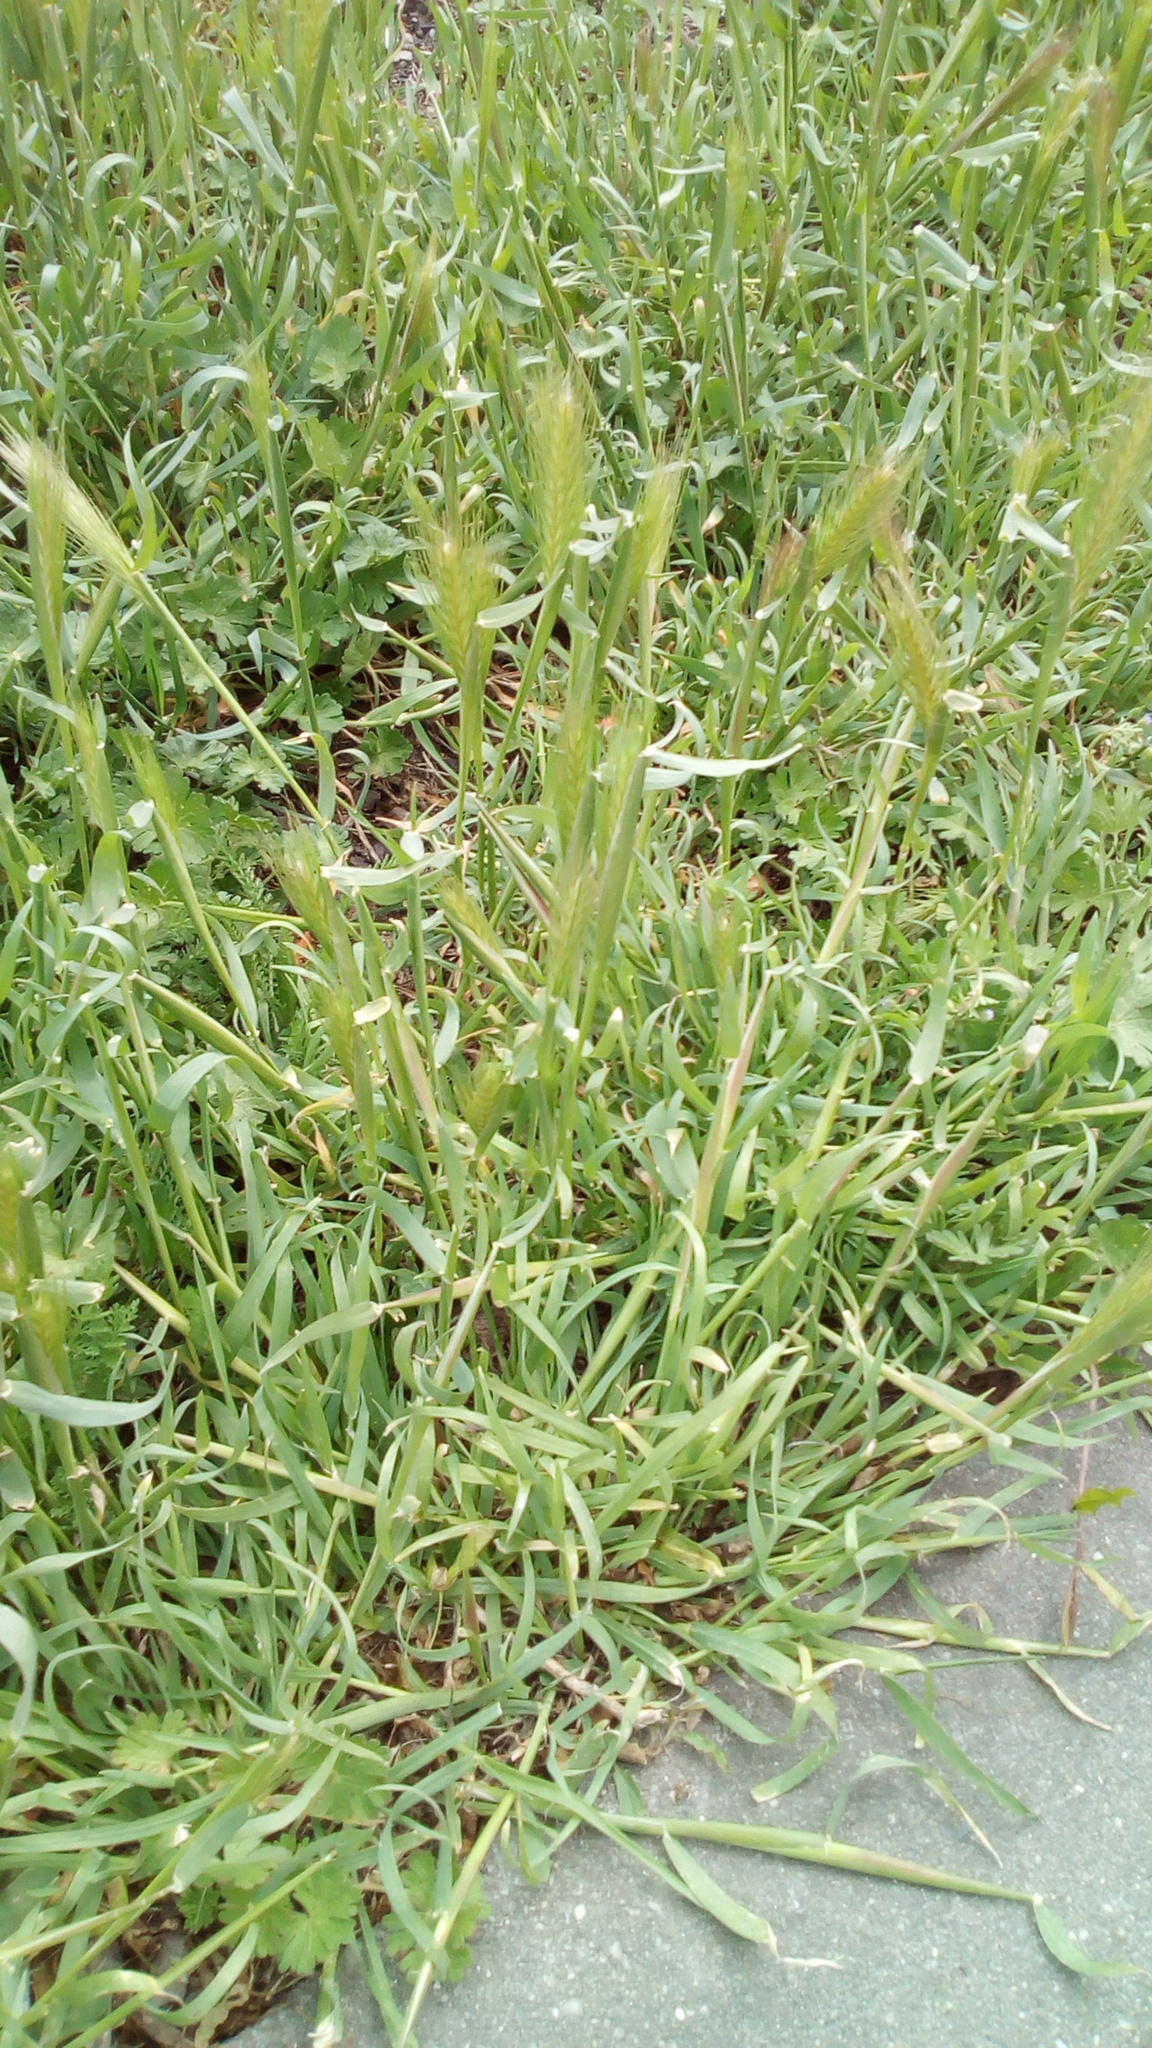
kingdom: Plantae
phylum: Tracheophyta
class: Liliopsida
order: Poales
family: Poaceae
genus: Hordeum
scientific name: Hordeum murinum
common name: Wall barley
